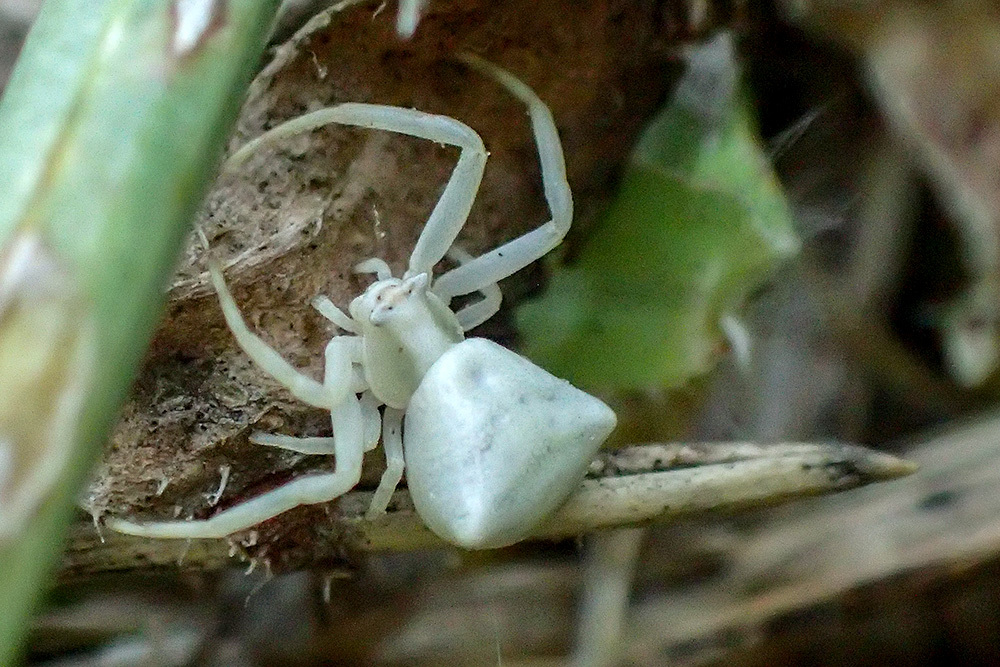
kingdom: Animalia
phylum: Arthropoda
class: Arachnida
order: Araneae
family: Thomisidae
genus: Thomisus
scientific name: Thomisus onustus
